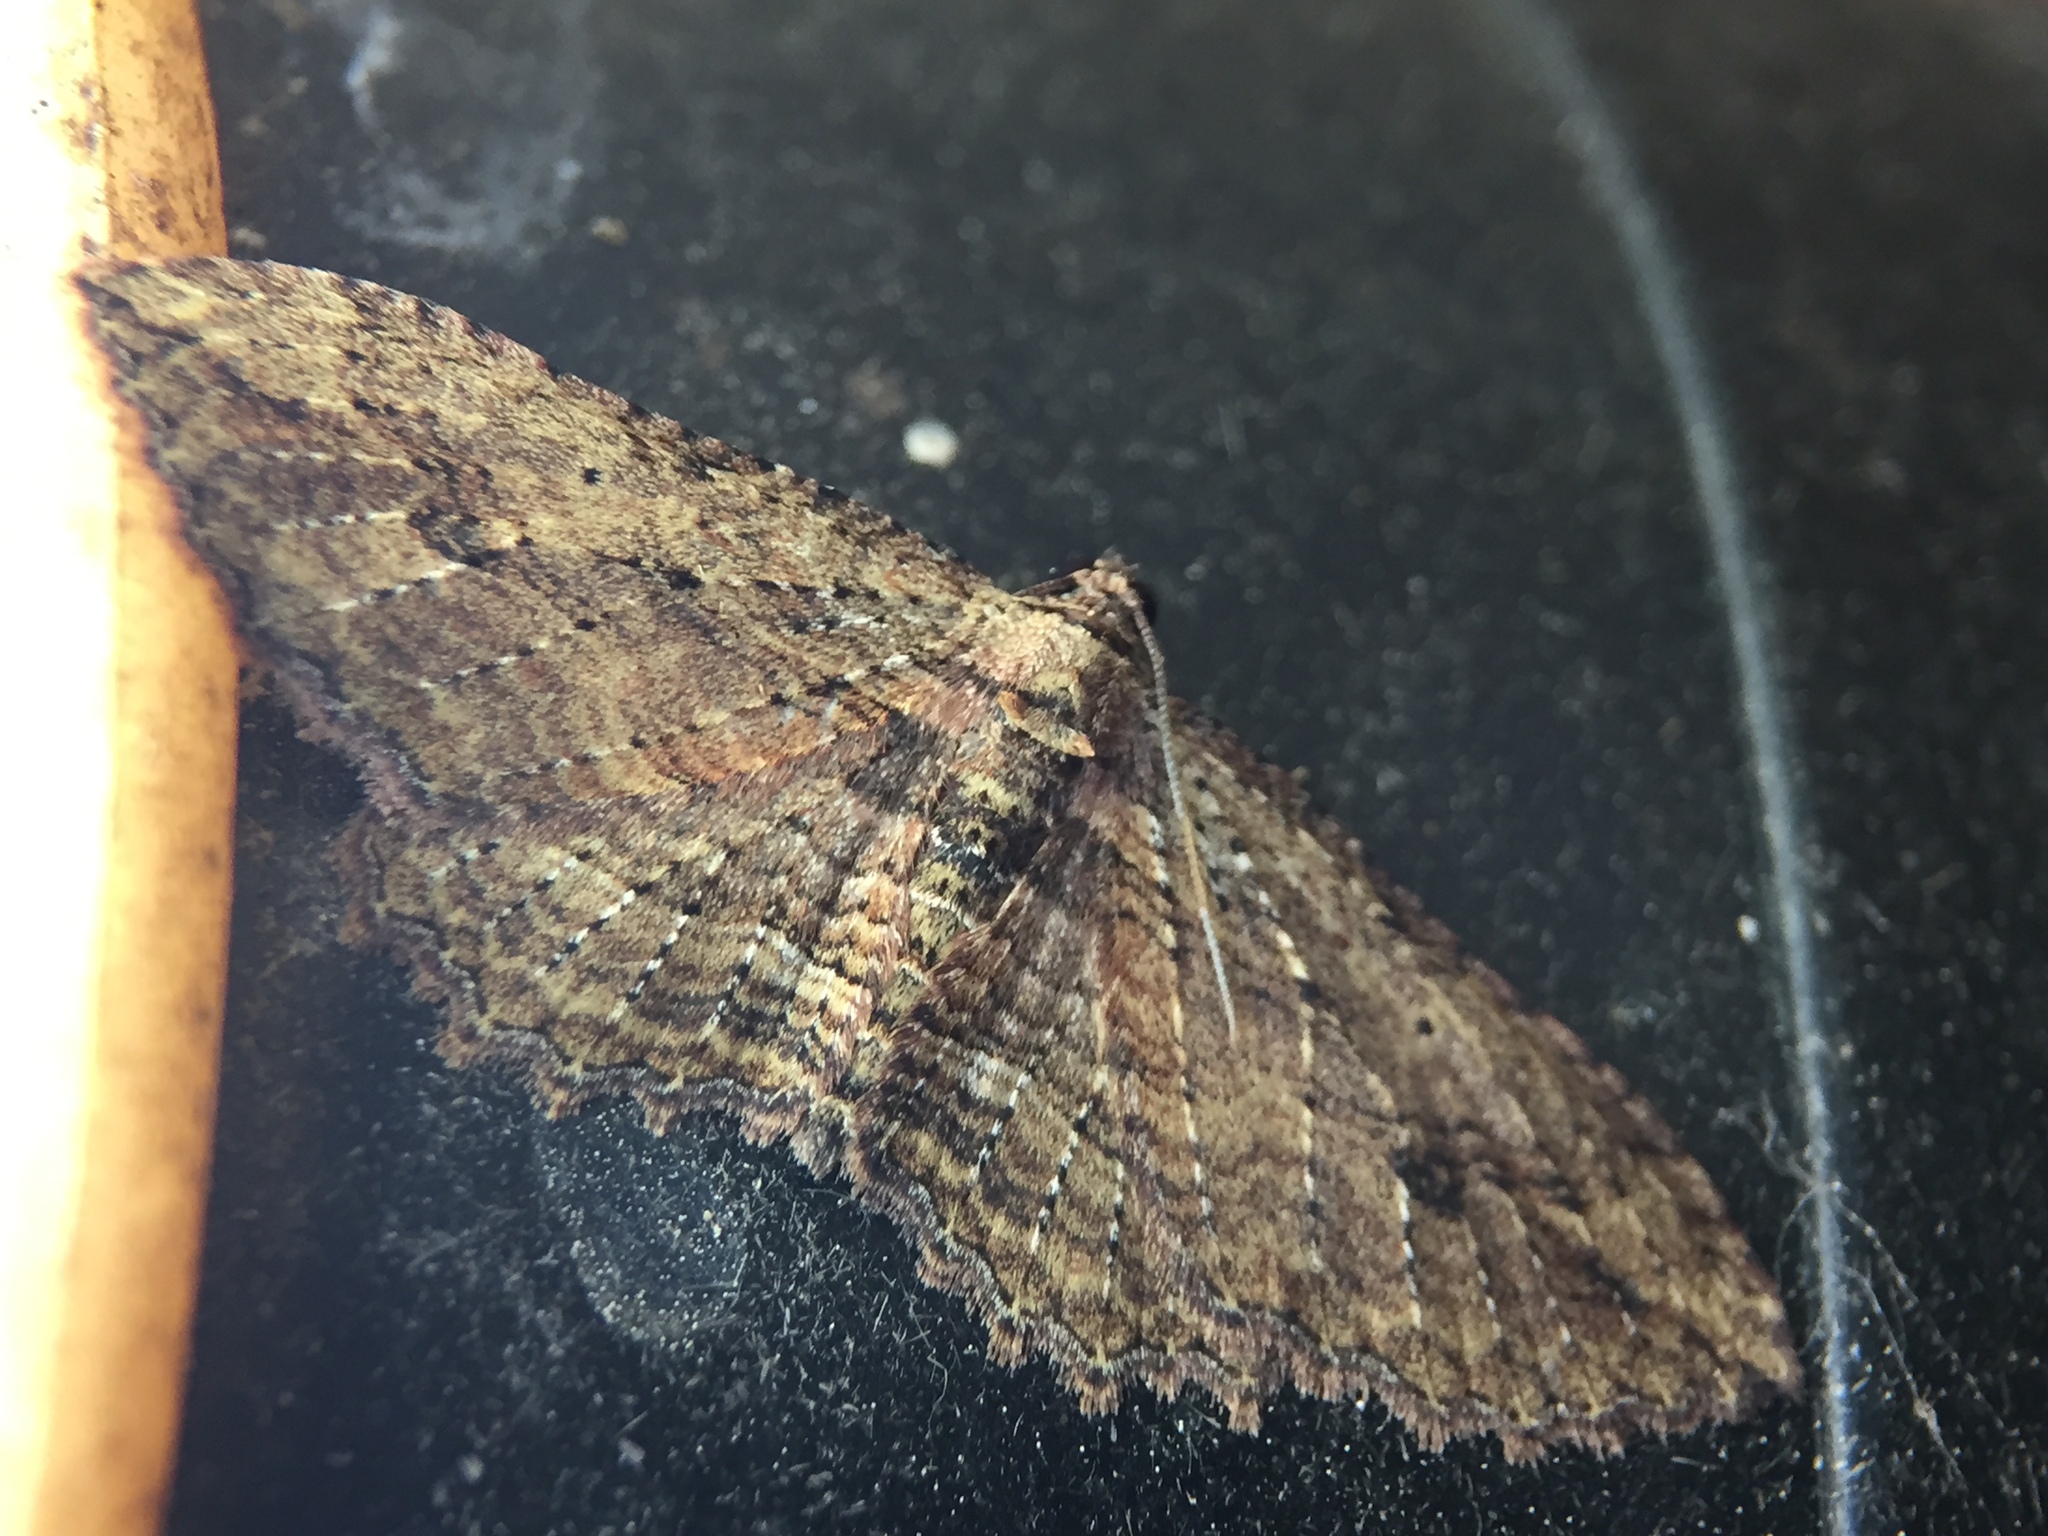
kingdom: Animalia
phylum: Arthropoda
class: Insecta
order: Lepidoptera
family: Geometridae
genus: Austrocidaria
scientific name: Austrocidaria bipartita
